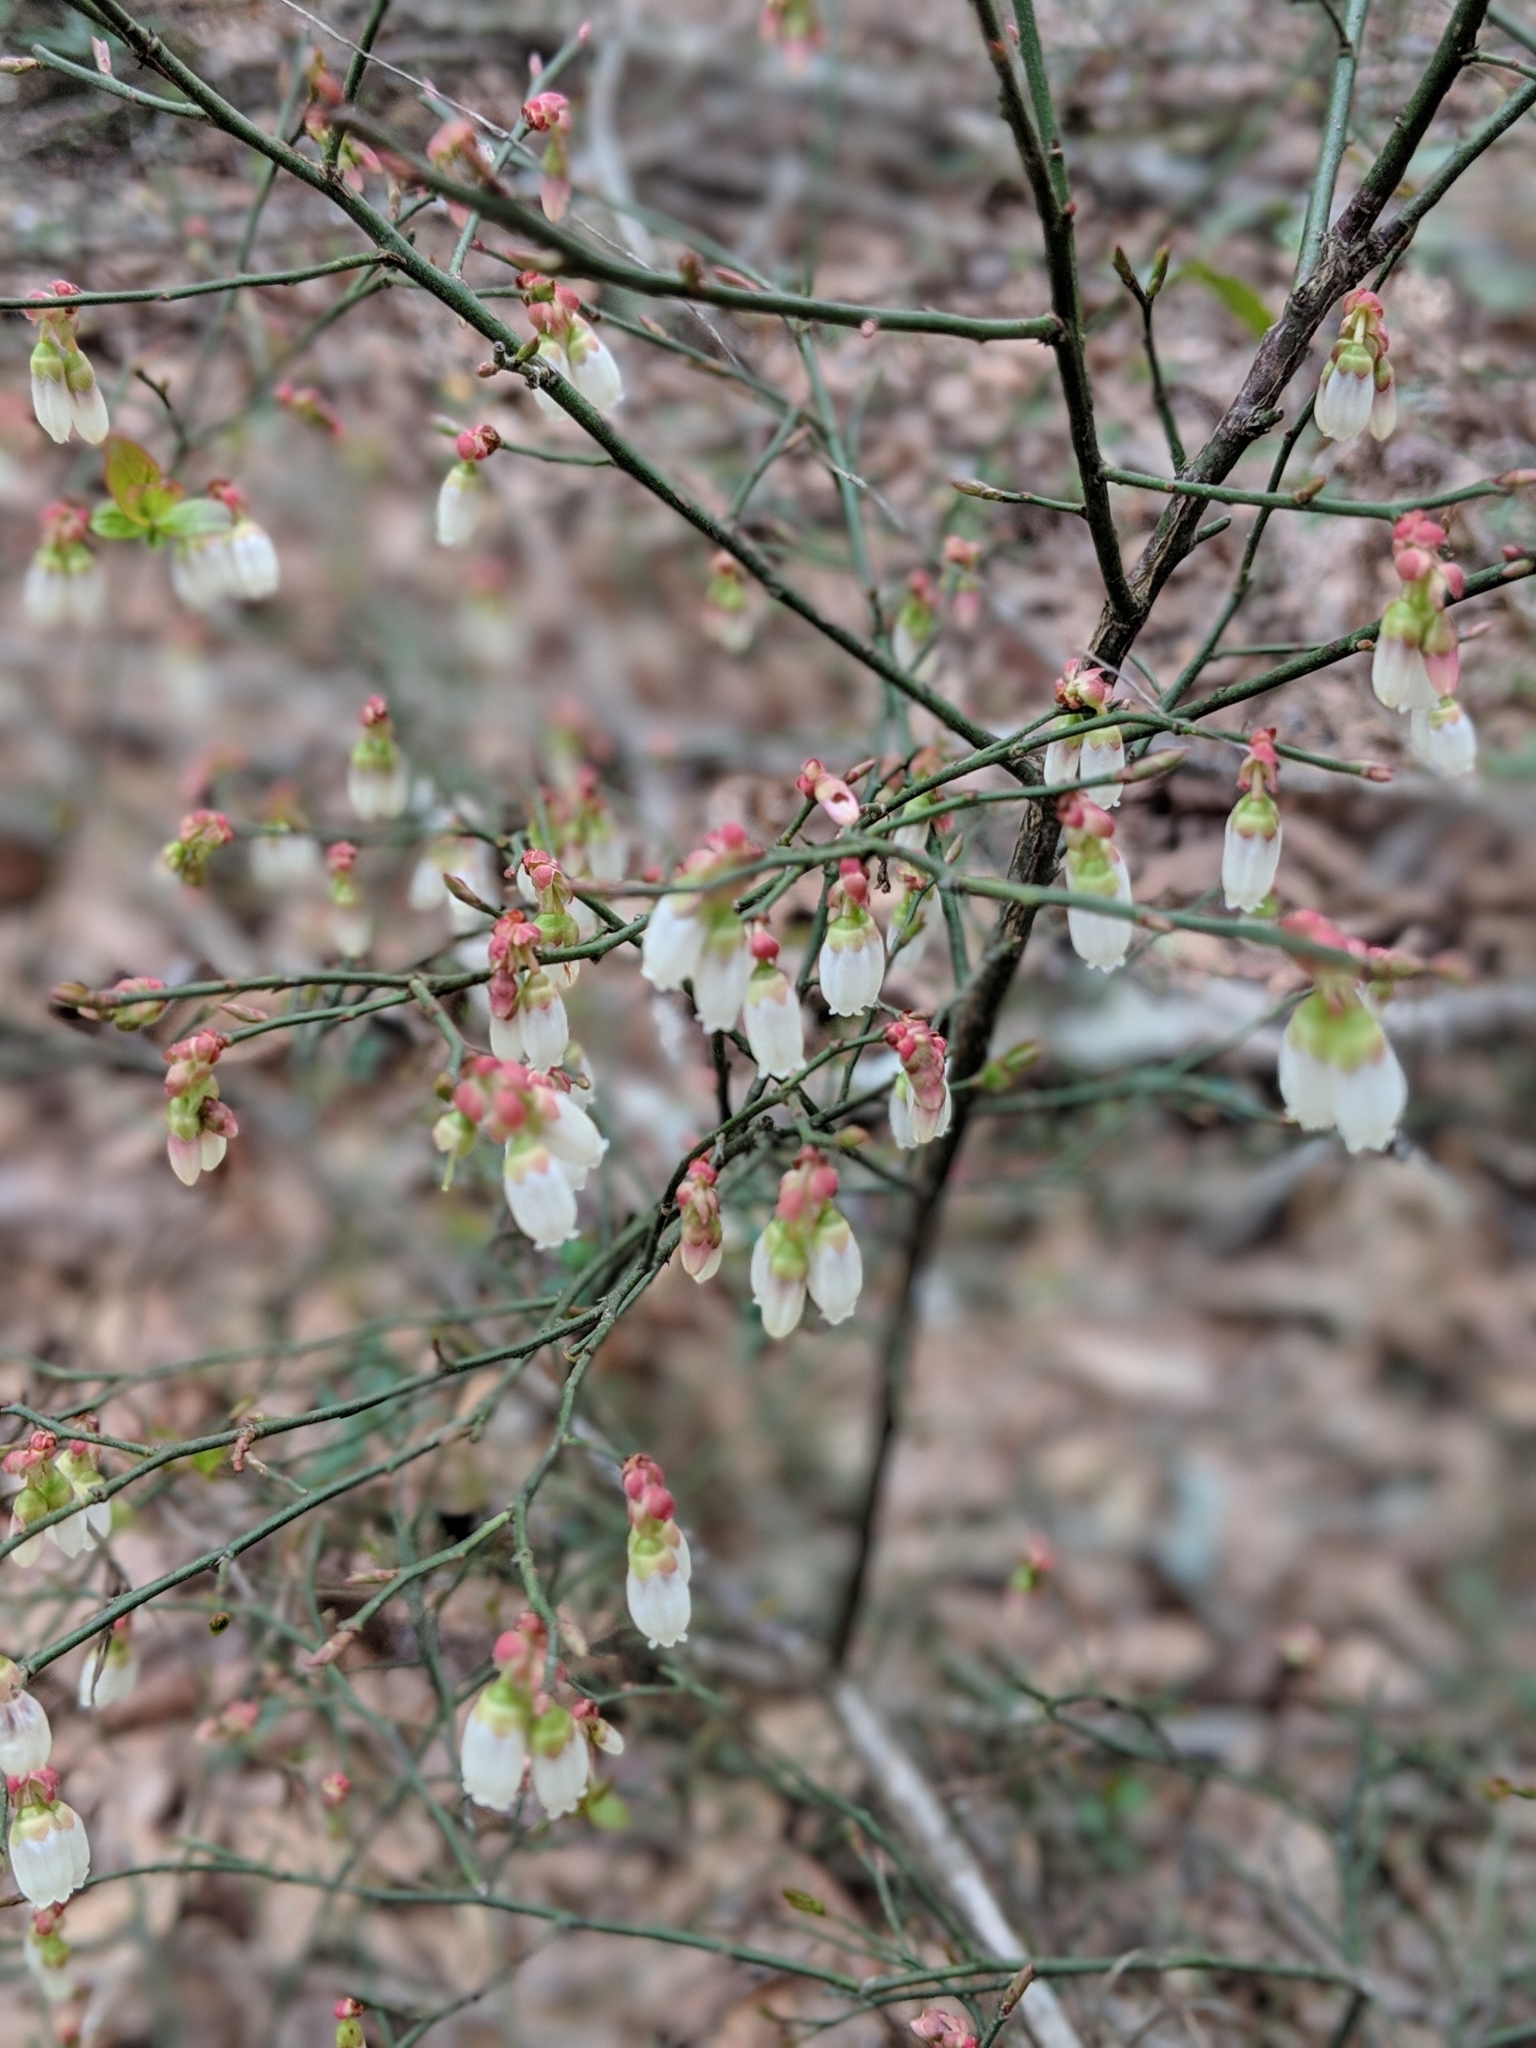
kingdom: Plantae
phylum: Tracheophyta
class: Magnoliopsida
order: Ericales
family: Ericaceae
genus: Vaccinium
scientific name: Vaccinium corymbosum
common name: Blueberry
